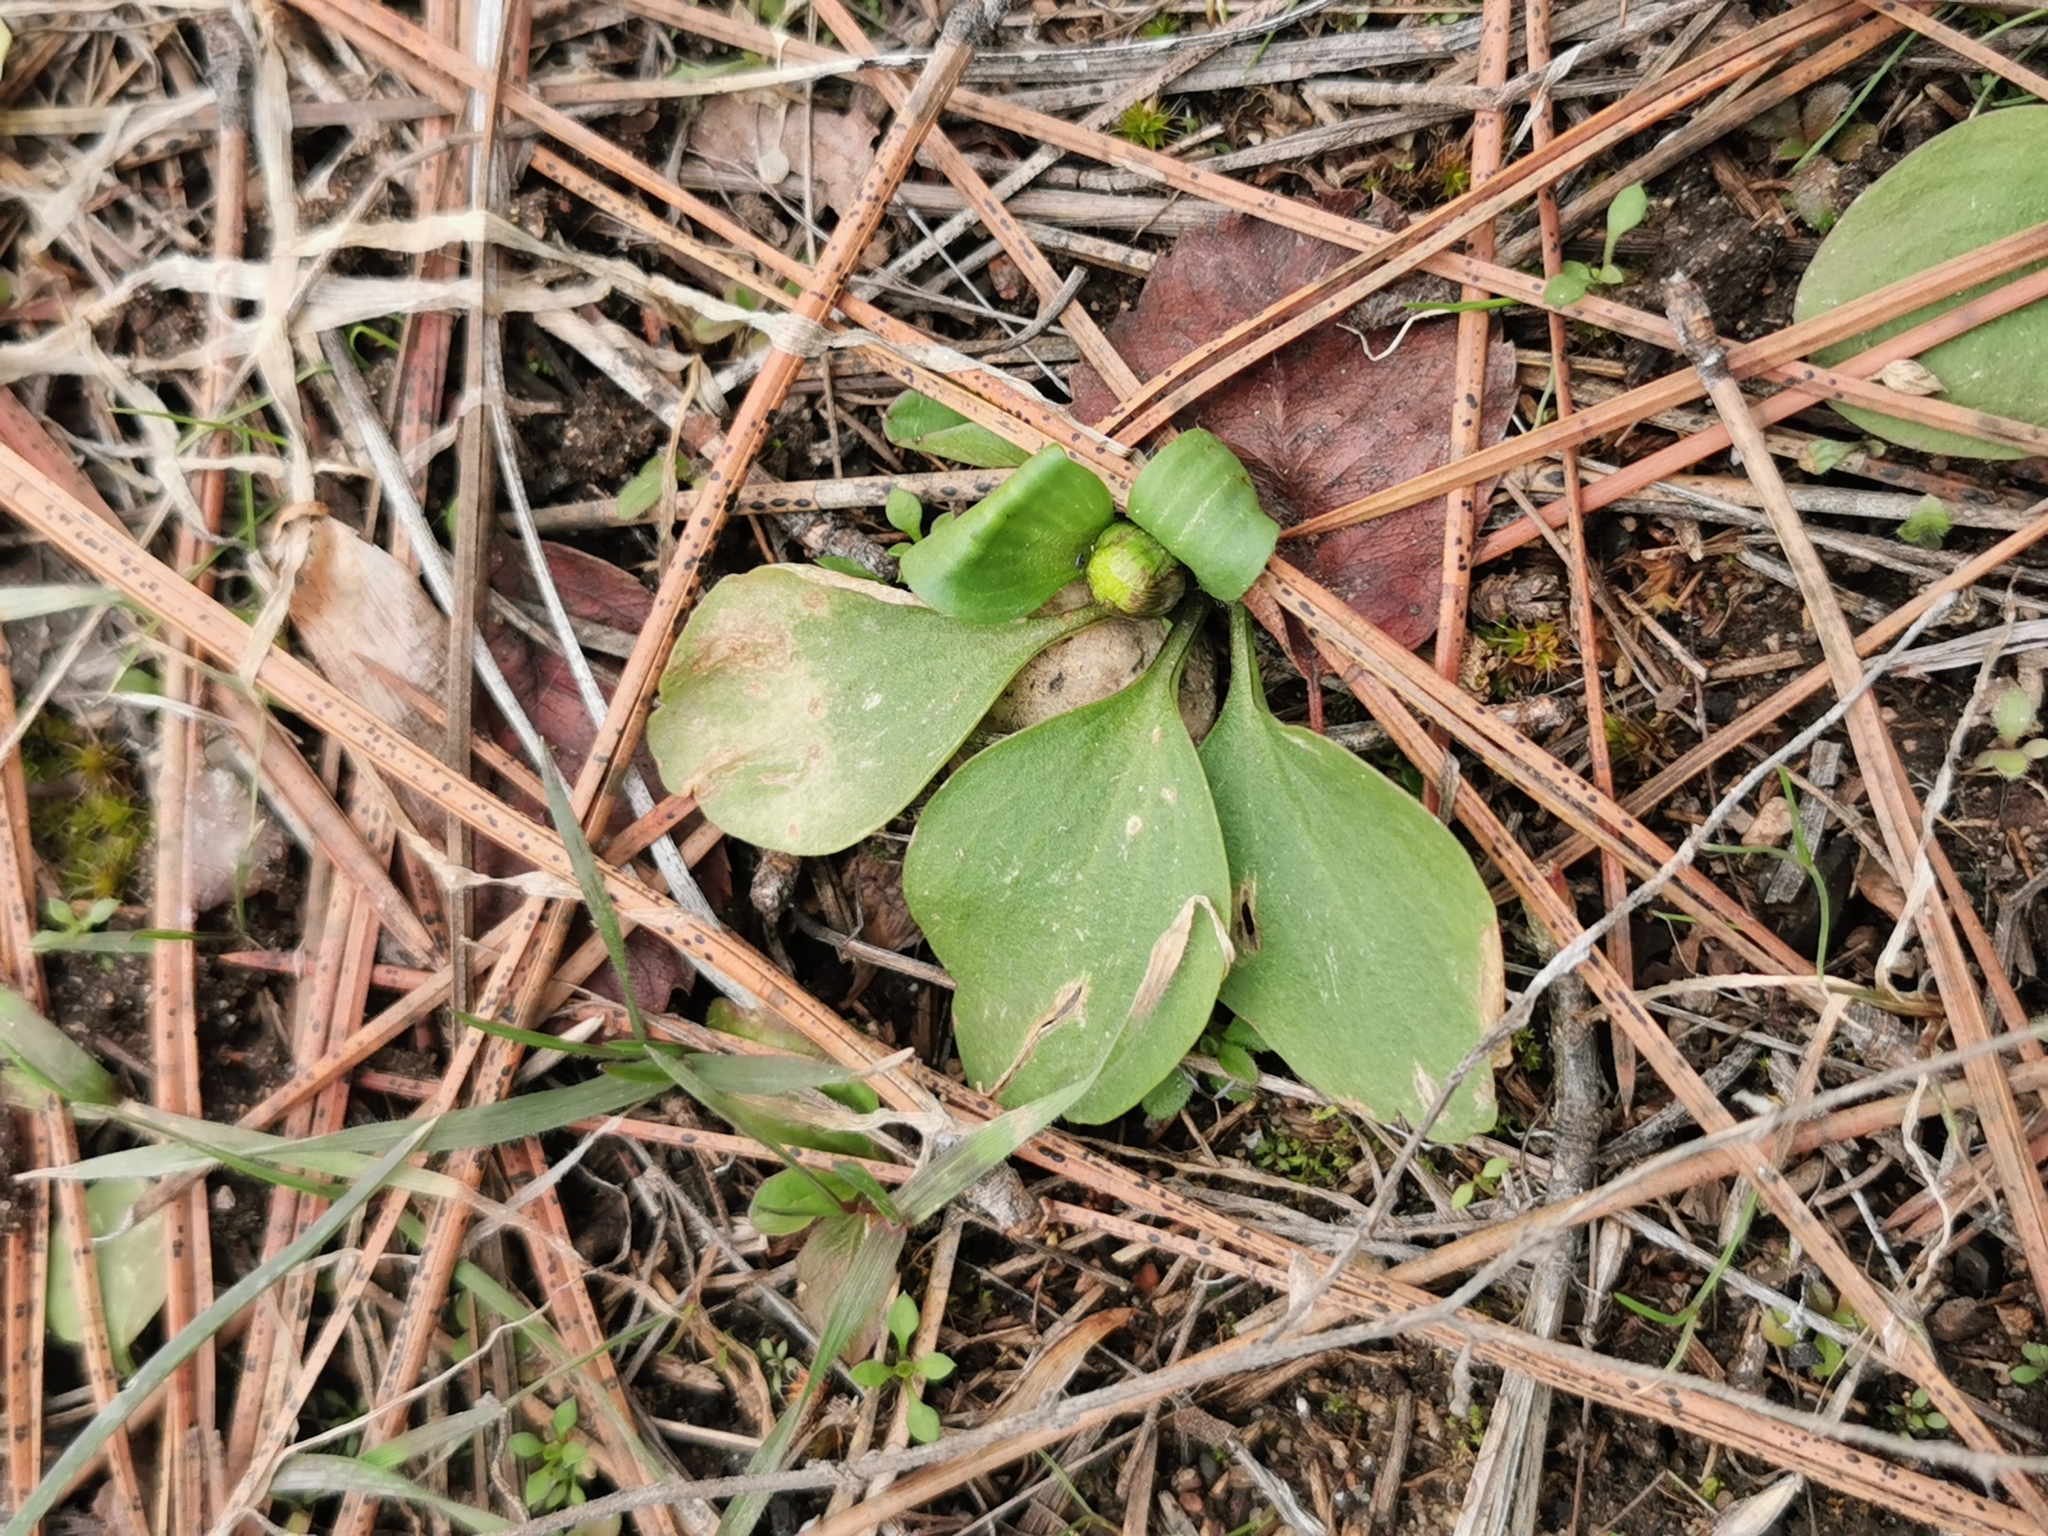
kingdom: Plantae
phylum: Tracheophyta
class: Magnoliopsida
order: Ranunculales
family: Ranunculaceae
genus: Ranunculus
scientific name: Ranunculus glaberrimus
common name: Sagebrush buttercup
